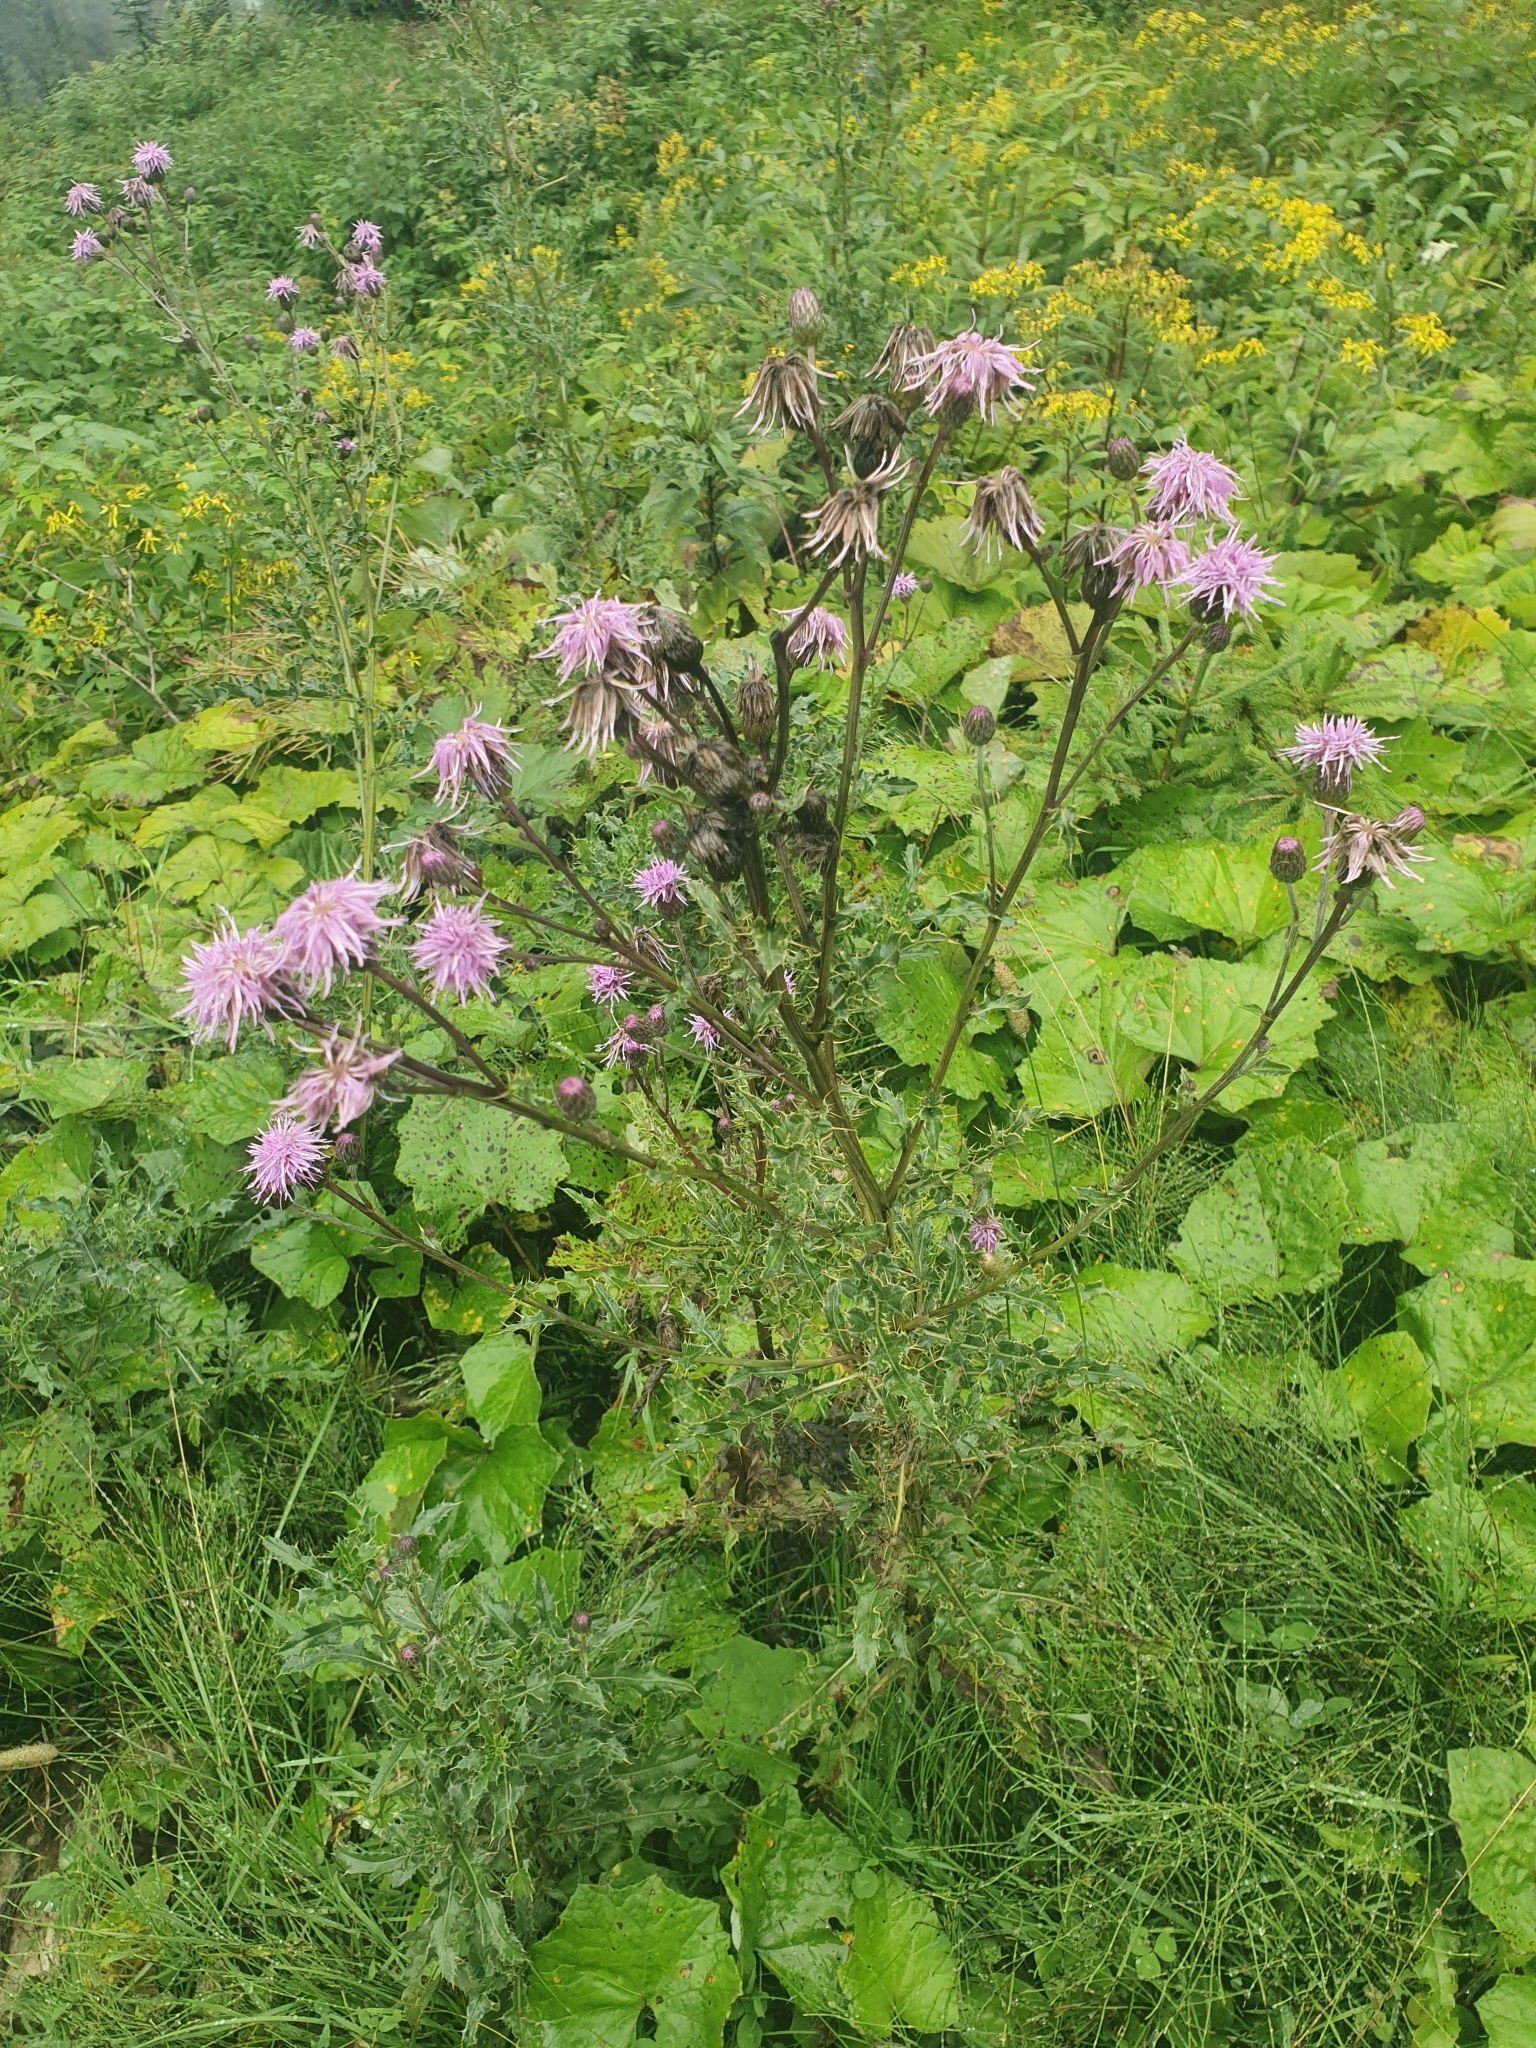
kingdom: Plantae
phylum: Tracheophyta
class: Magnoliopsida
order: Asterales
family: Asteraceae
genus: Cirsium
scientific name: Cirsium arvense
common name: Creeping thistle
